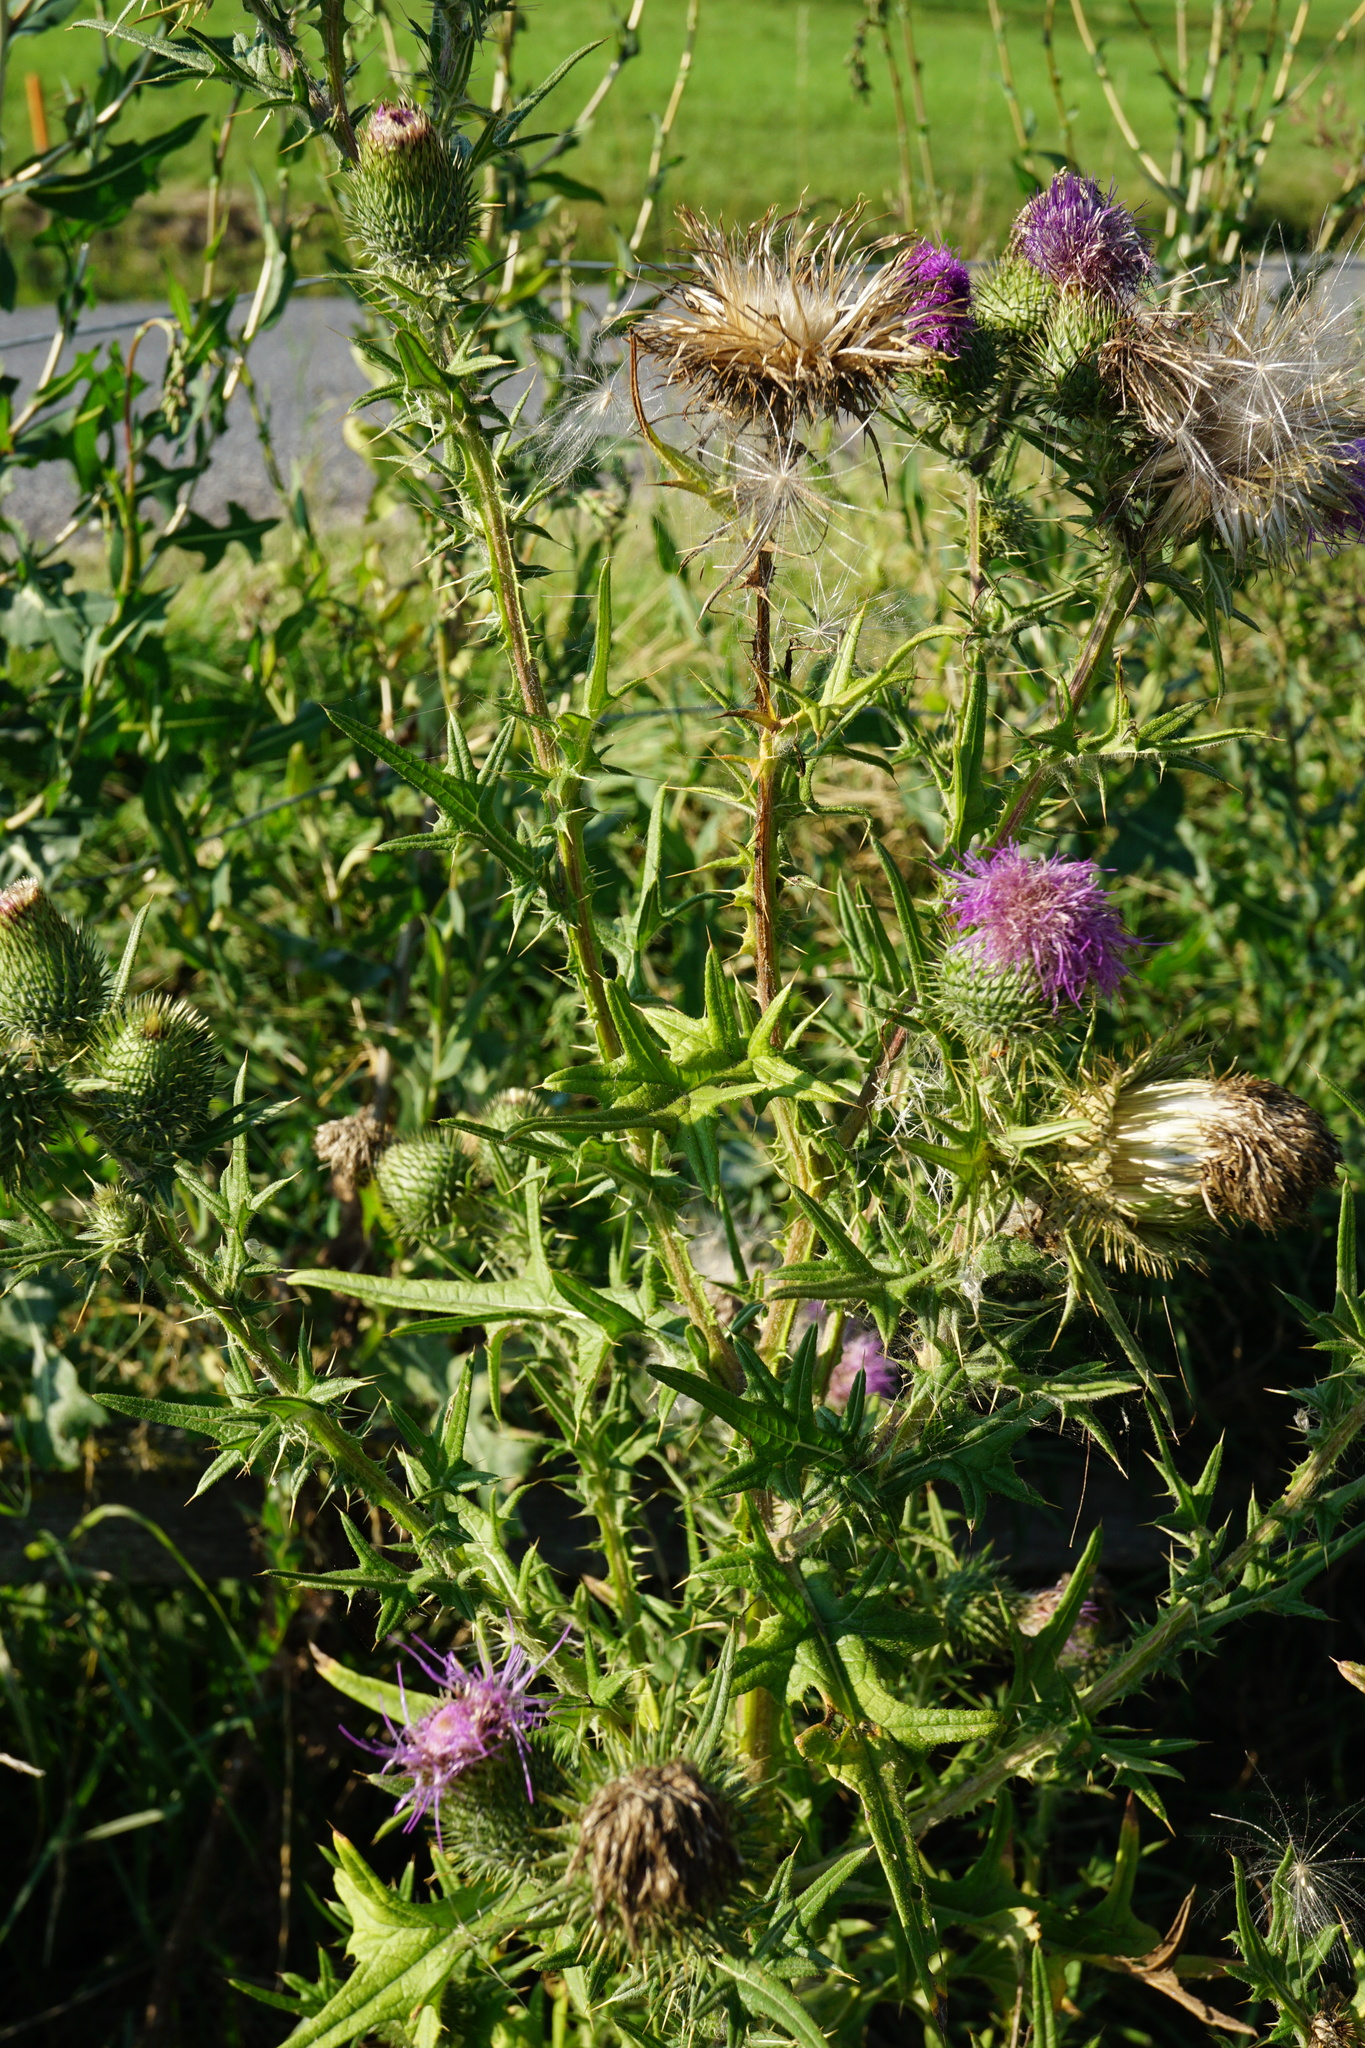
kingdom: Plantae
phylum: Tracheophyta
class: Magnoliopsida
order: Asterales
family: Asteraceae
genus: Cirsium
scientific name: Cirsium vulgare
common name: Bull thistle
